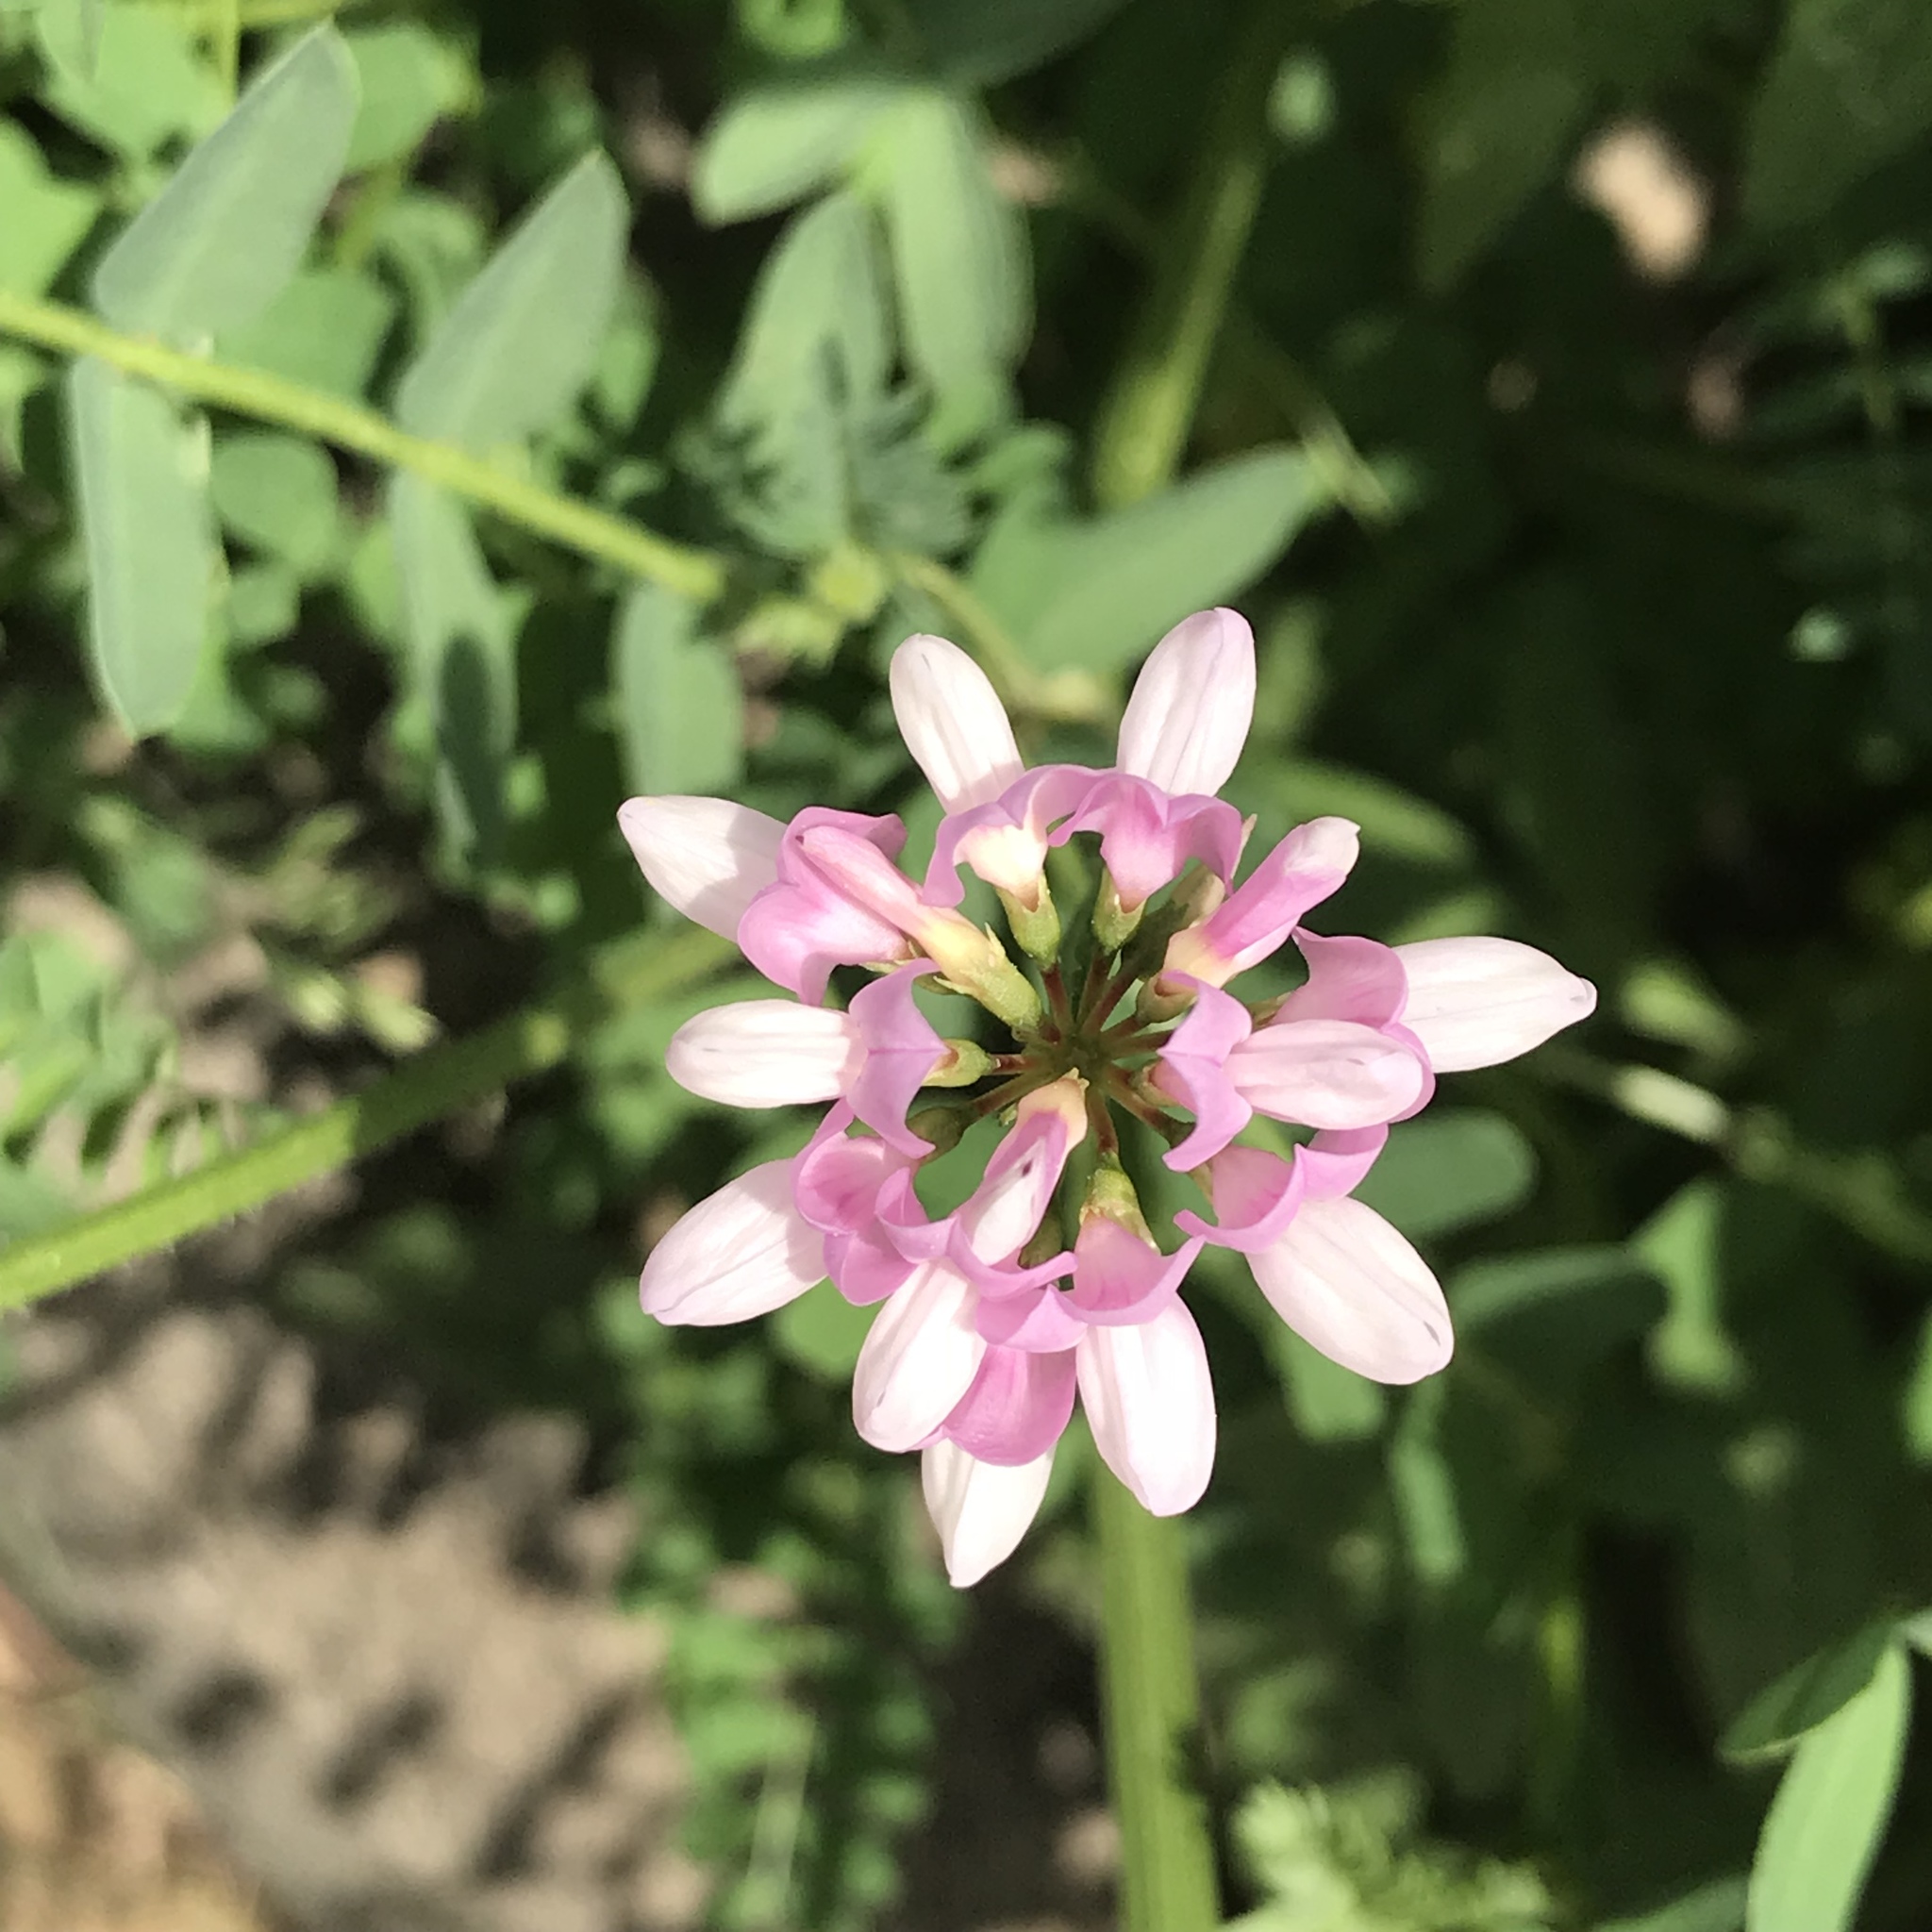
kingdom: Plantae
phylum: Tracheophyta
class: Magnoliopsida
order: Fabales
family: Fabaceae
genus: Coronilla
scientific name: Coronilla varia
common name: Crownvetch
